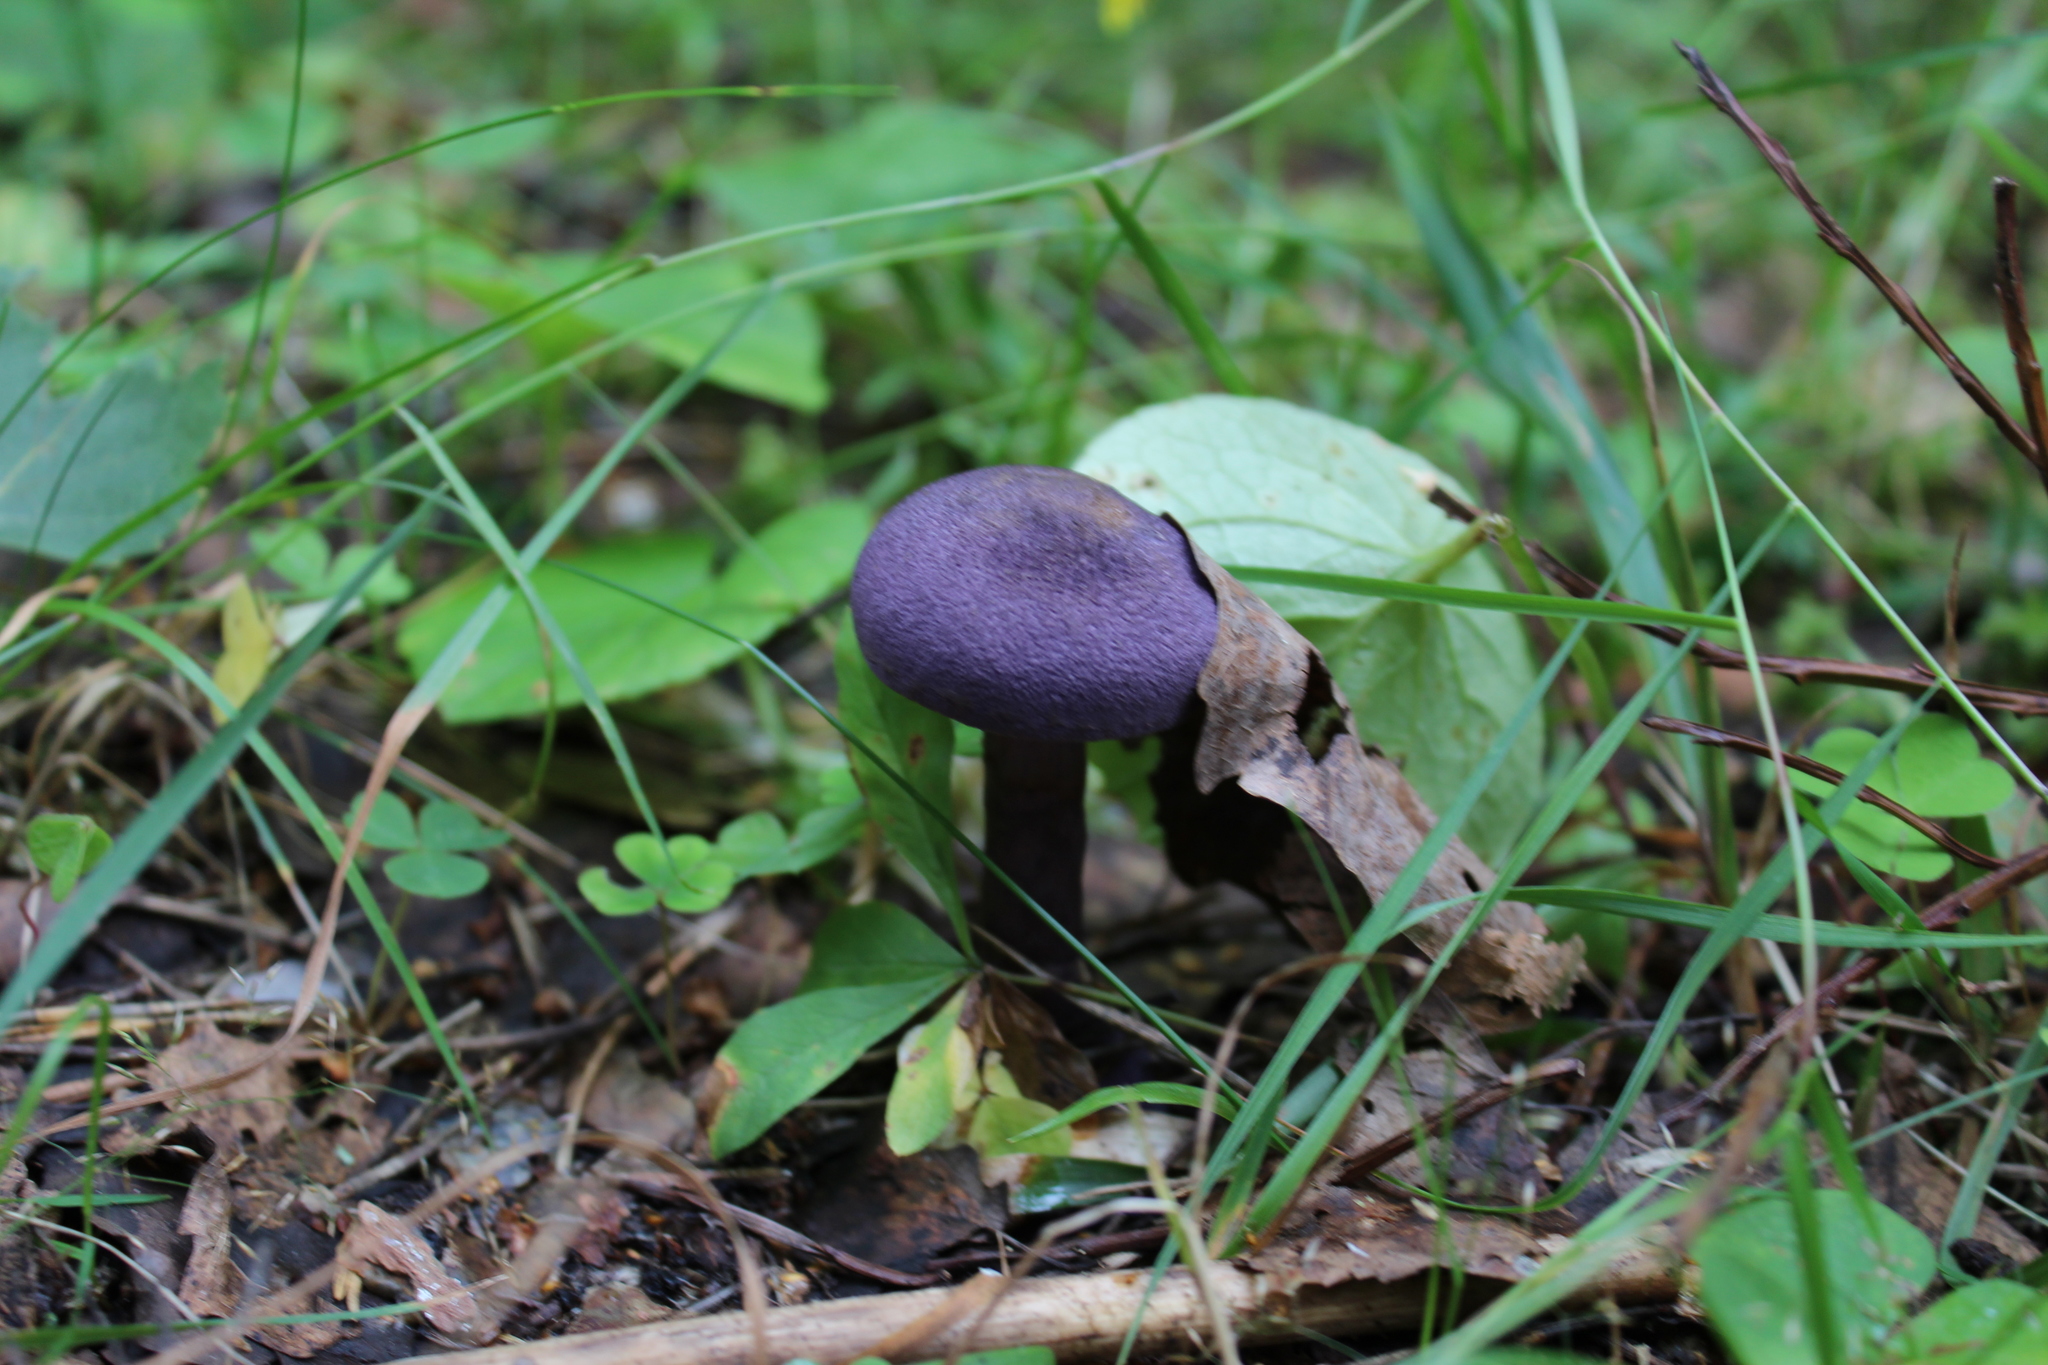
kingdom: Fungi
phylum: Basidiomycota
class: Agaricomycetes
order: Agaricales
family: Cortinariaceae
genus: Cortinarius
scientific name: Cortinarius violaceus
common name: Violet webcap
